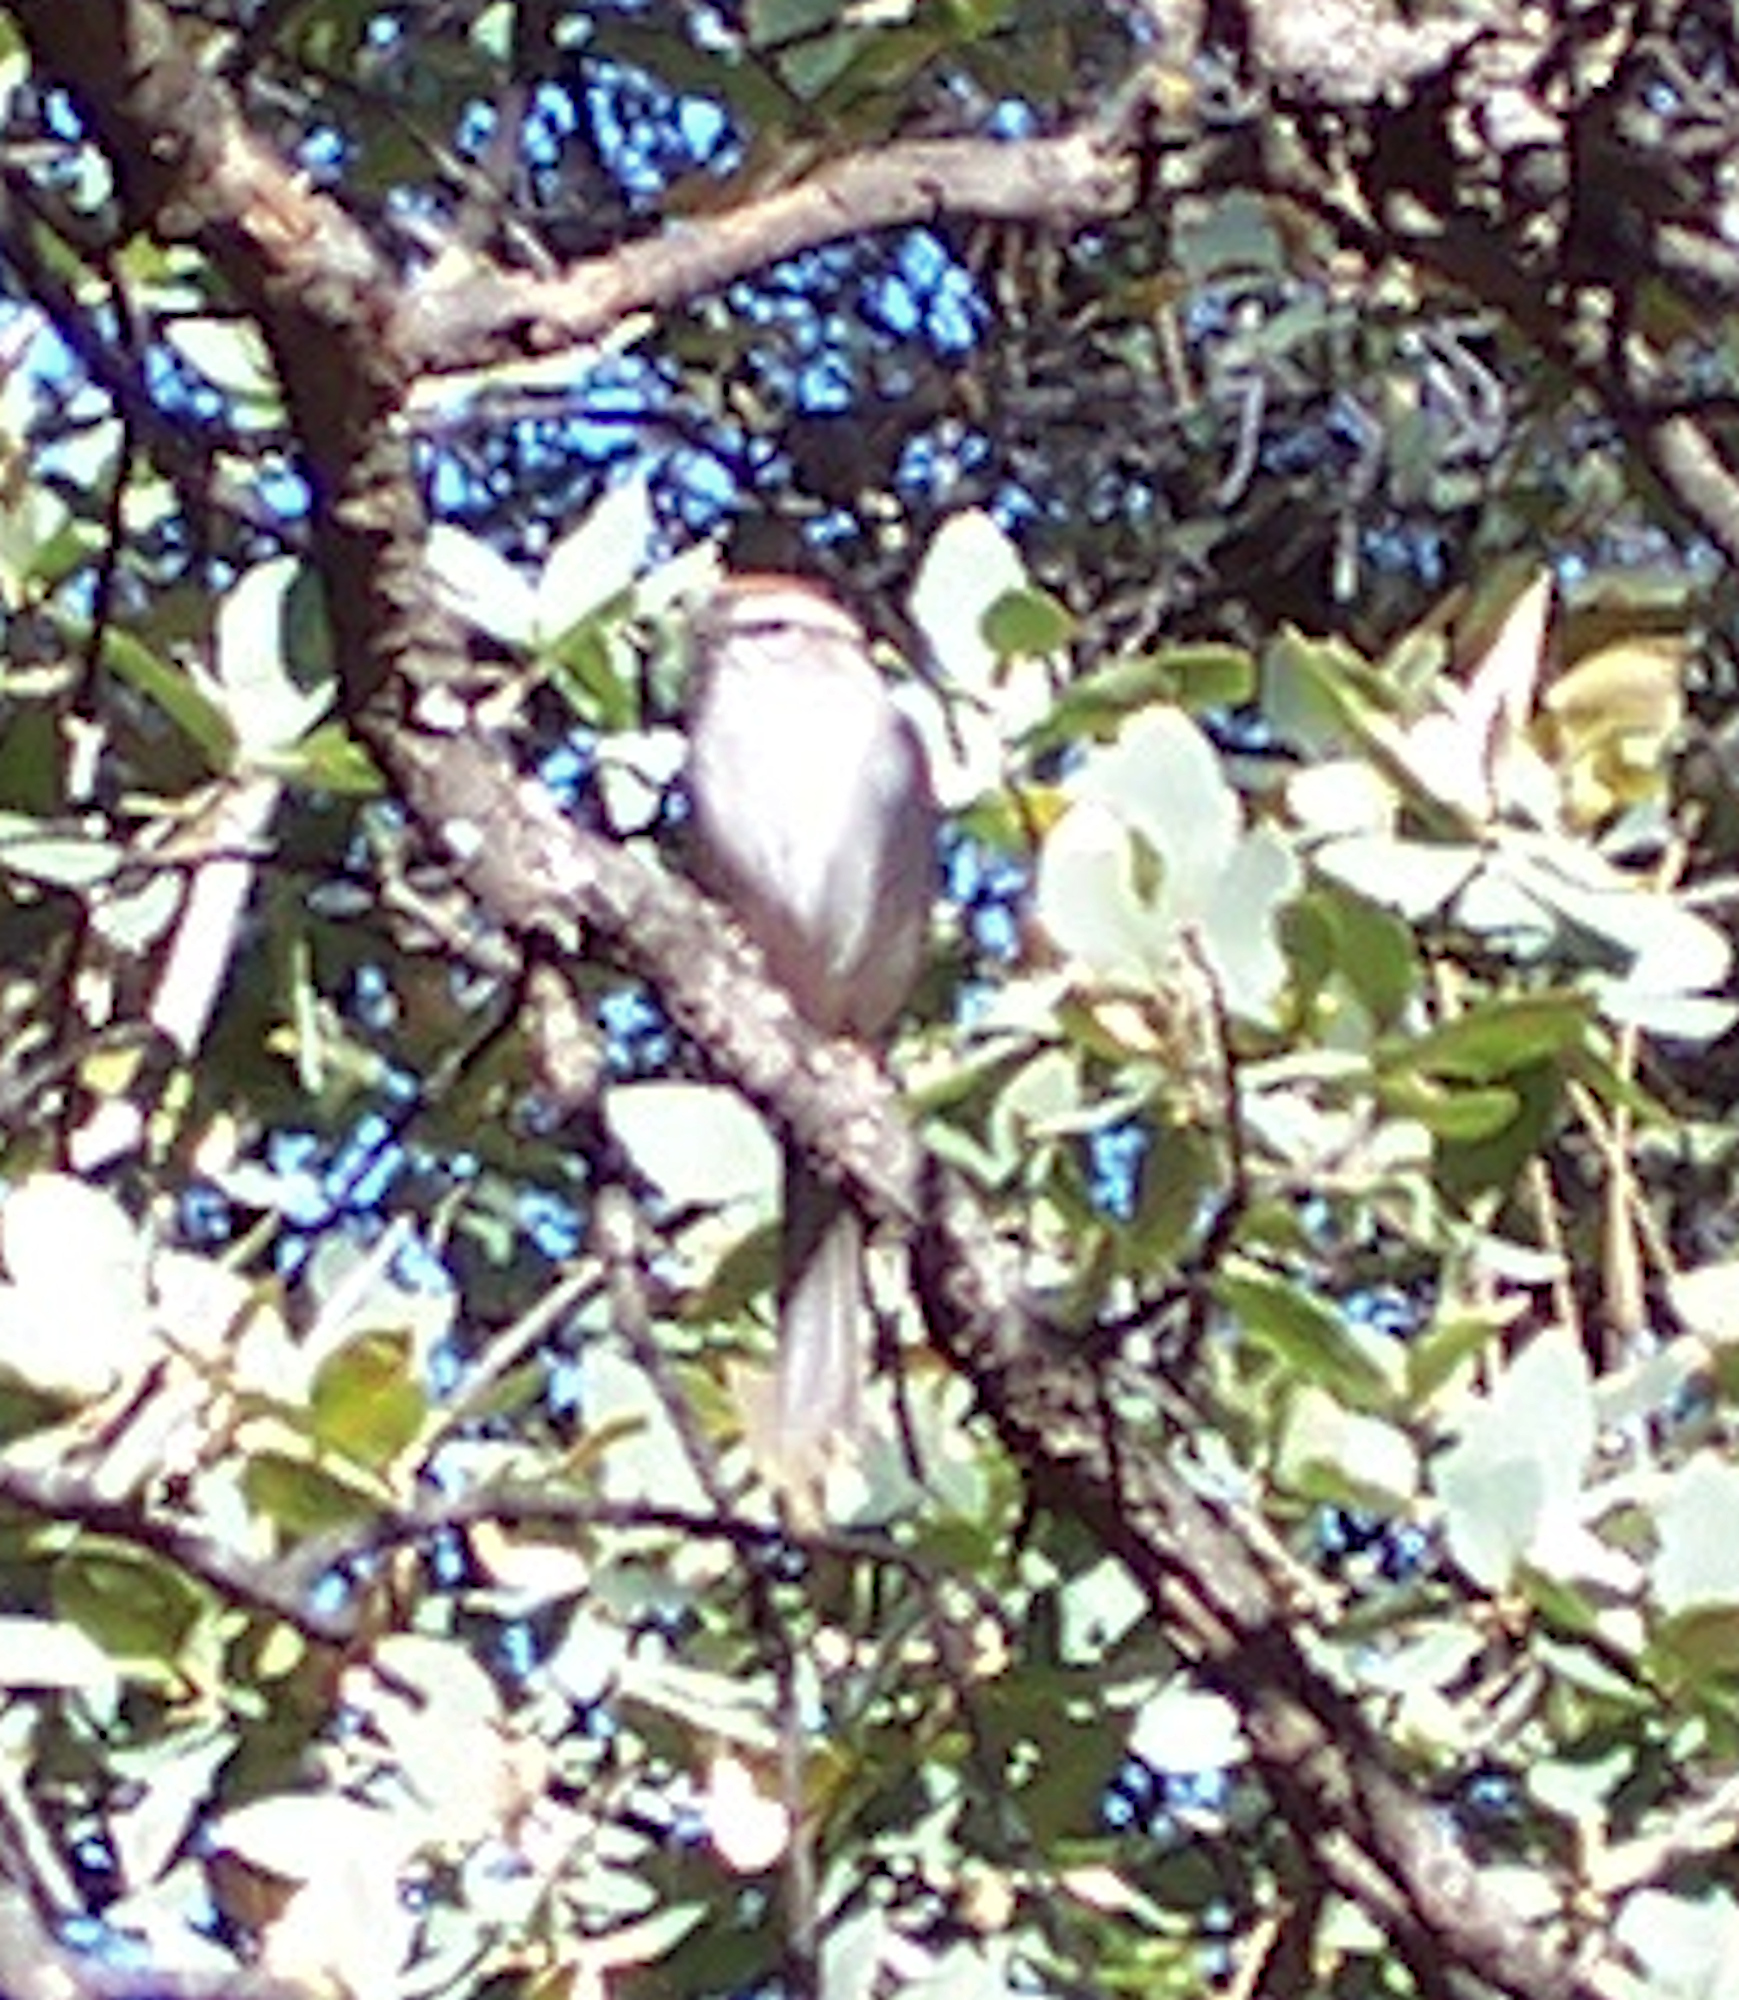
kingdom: Animalia
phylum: Chordata
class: Aves
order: Passeriformes
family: Passerellidae
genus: Spizella
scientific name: Spizella passerina
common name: Chipping sparrow
